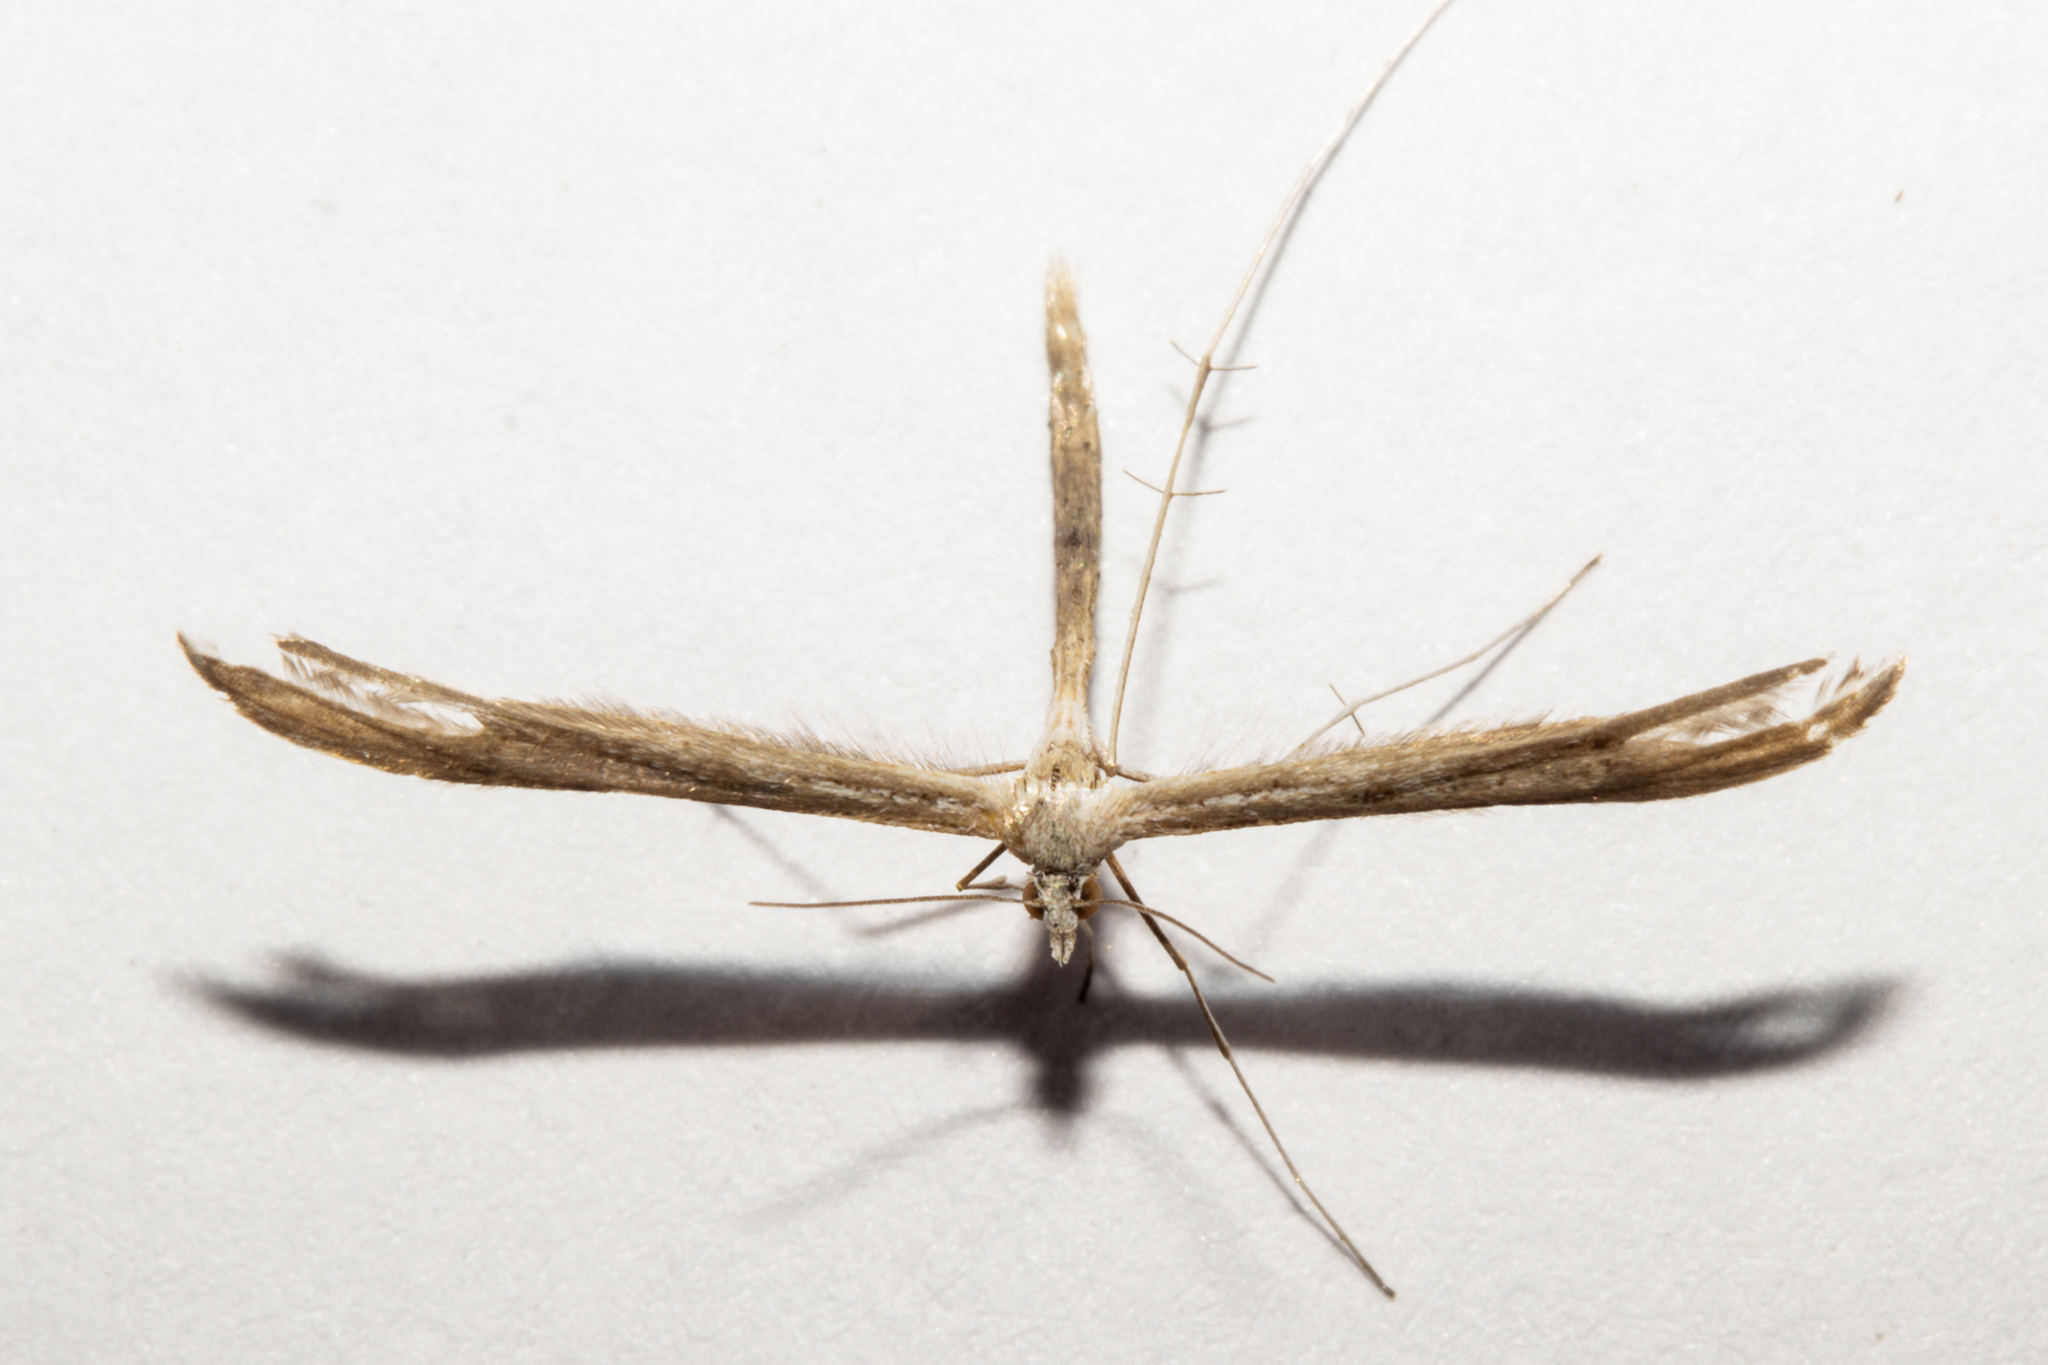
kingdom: Animalia
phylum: Arthropoda
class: Insecta
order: Lepidoptera
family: Pterophoridae
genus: Stenoptilia
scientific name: Stenoptilia zophodactylus
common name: Dowdy plume
